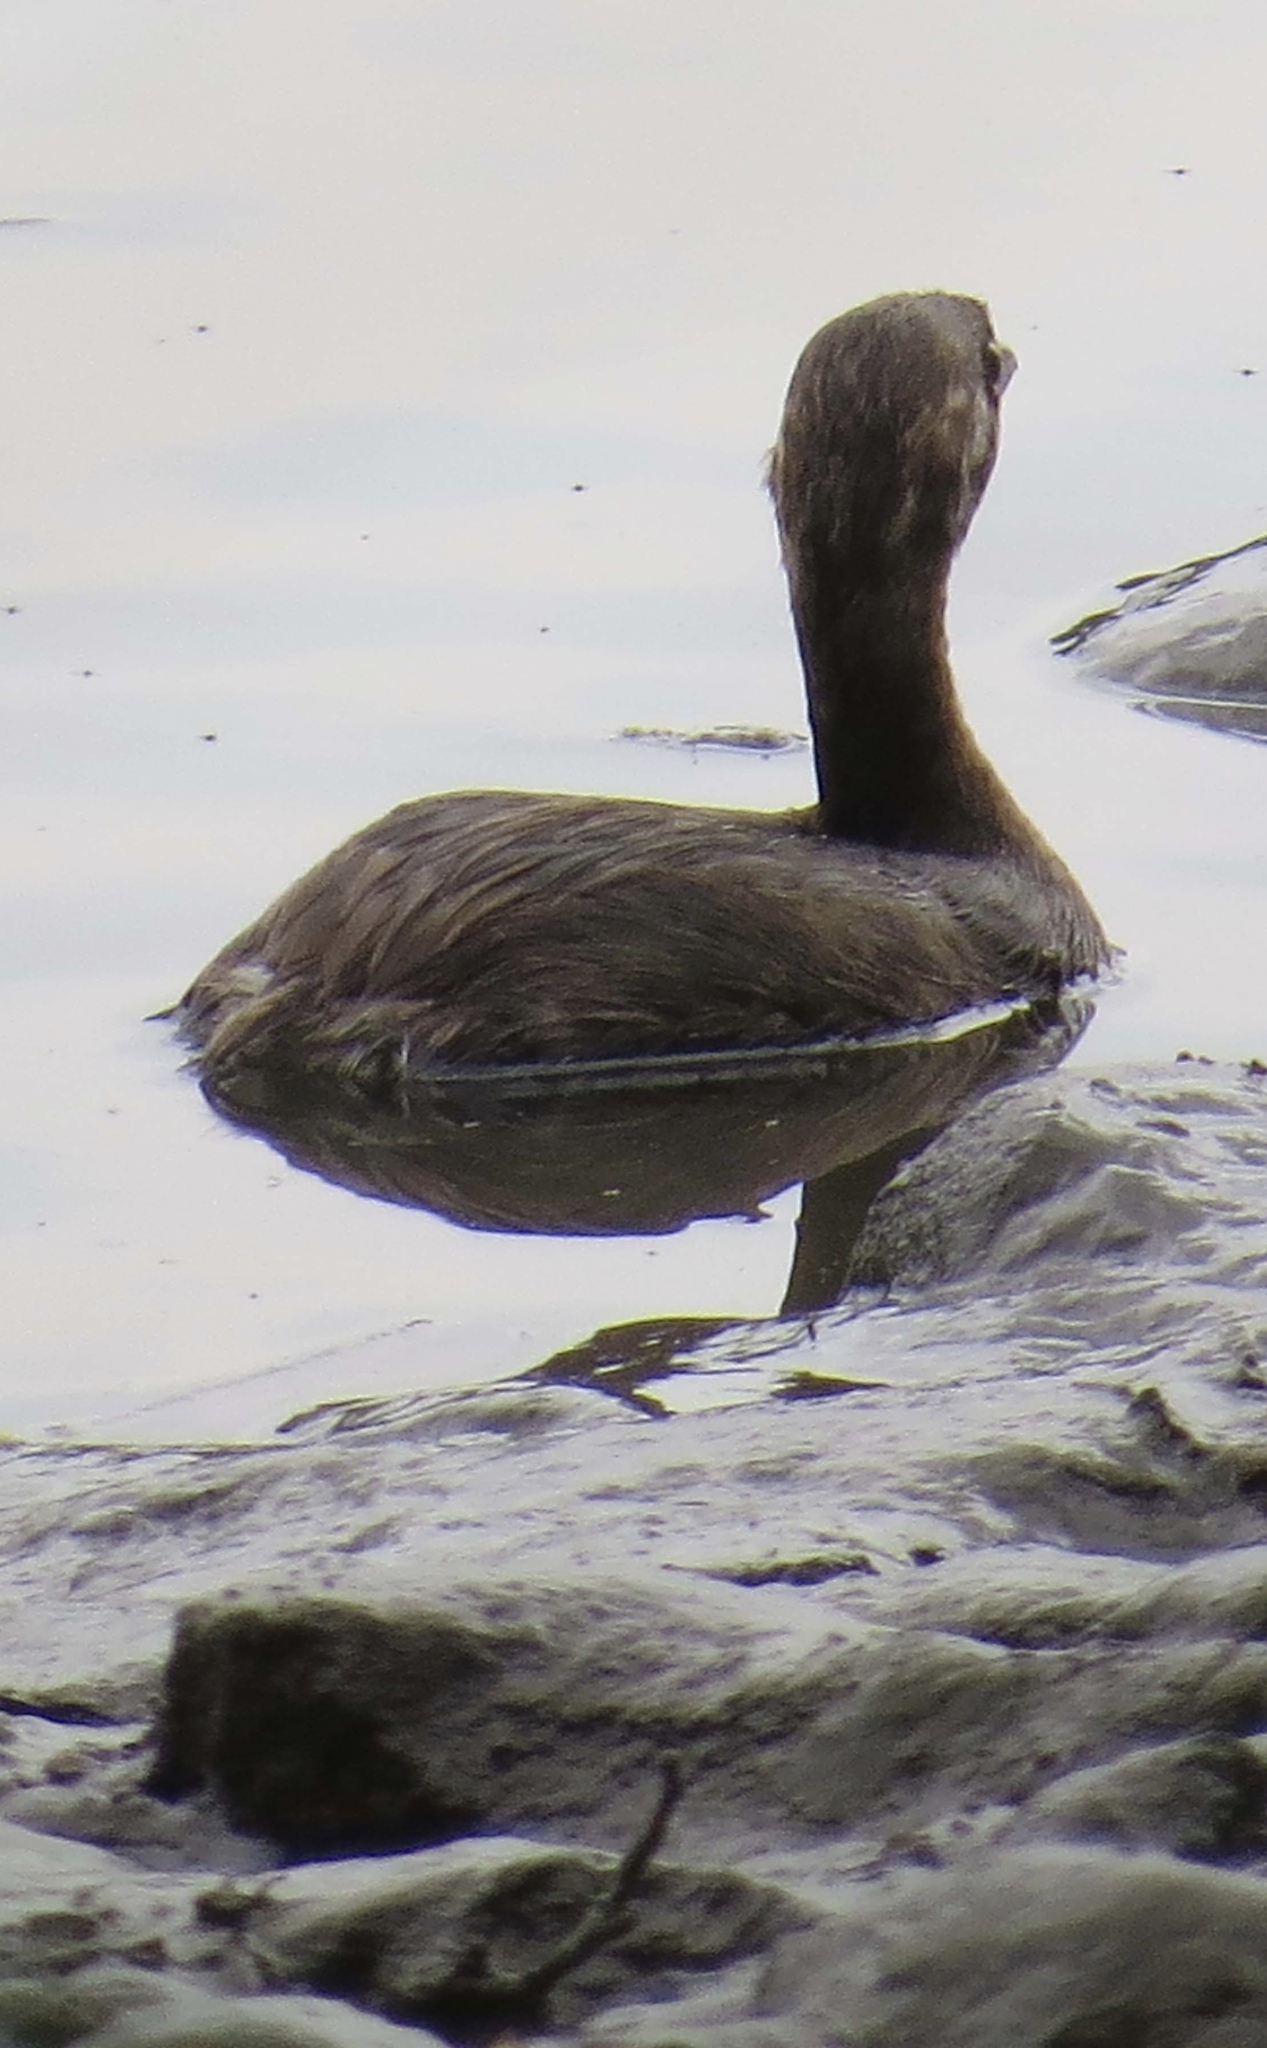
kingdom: Animalia
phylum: Chordata
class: Aves
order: Podicipediformes
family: Podicipedidae
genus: Podilymbus
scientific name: Podilymbus podiceps
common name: Pied-billed grebe
